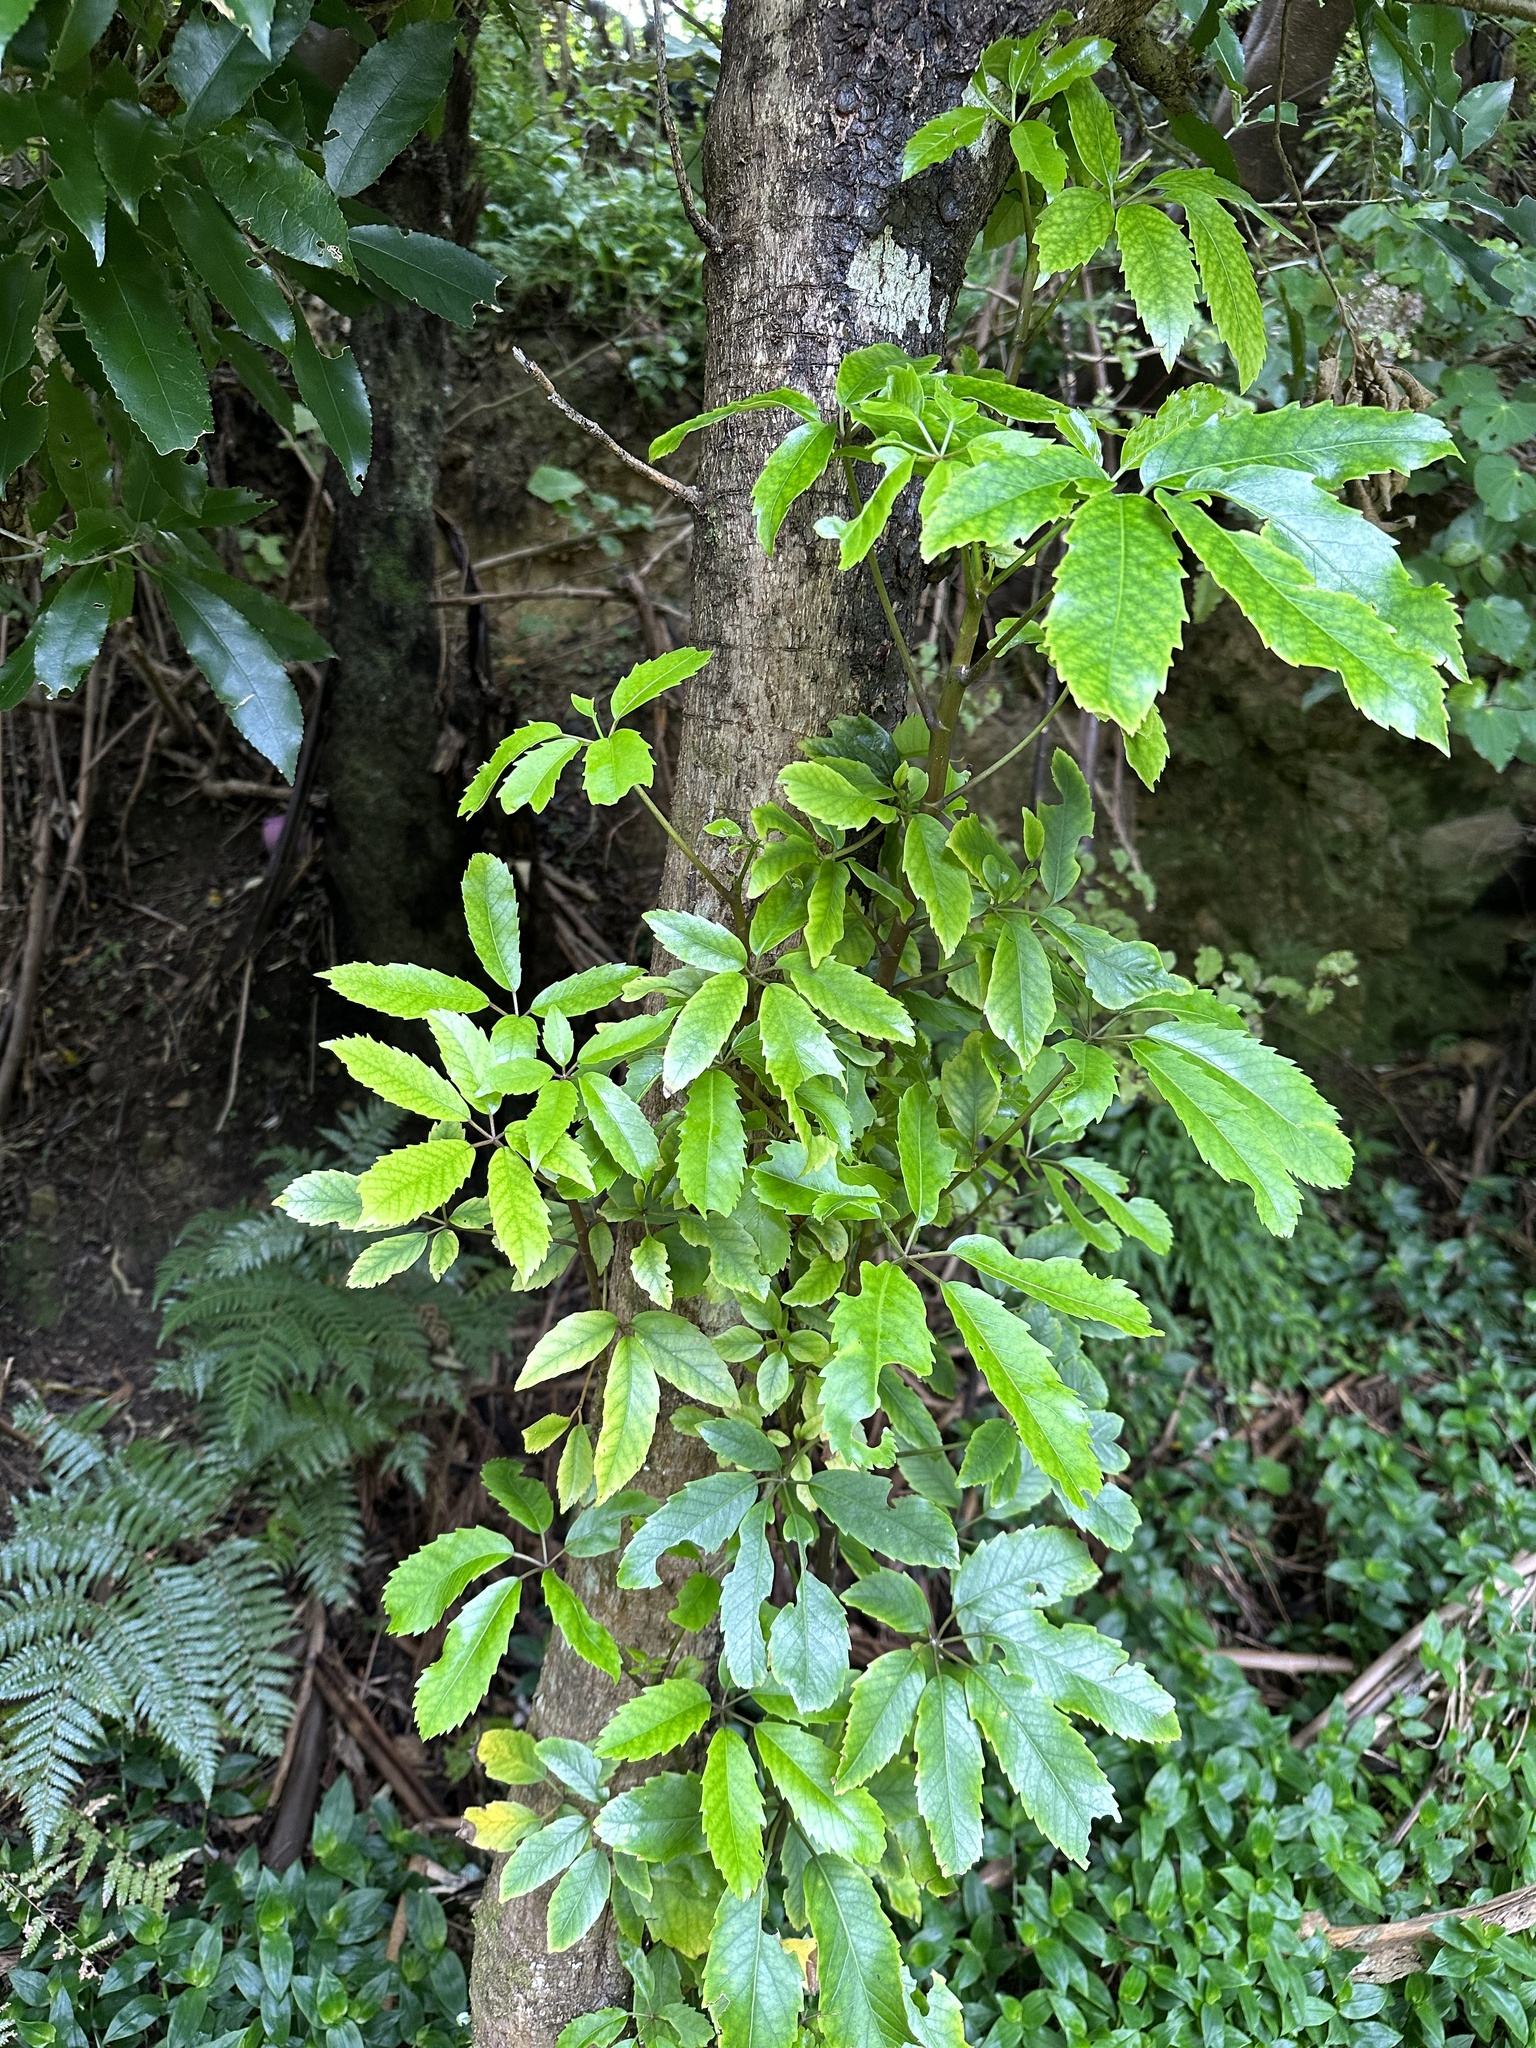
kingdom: Plantae
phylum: Tracheophyta
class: Magnoliopsida
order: Apiales
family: Araliaceae
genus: Neopanax
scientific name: Neopanax arboreus
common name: Five-fingers
